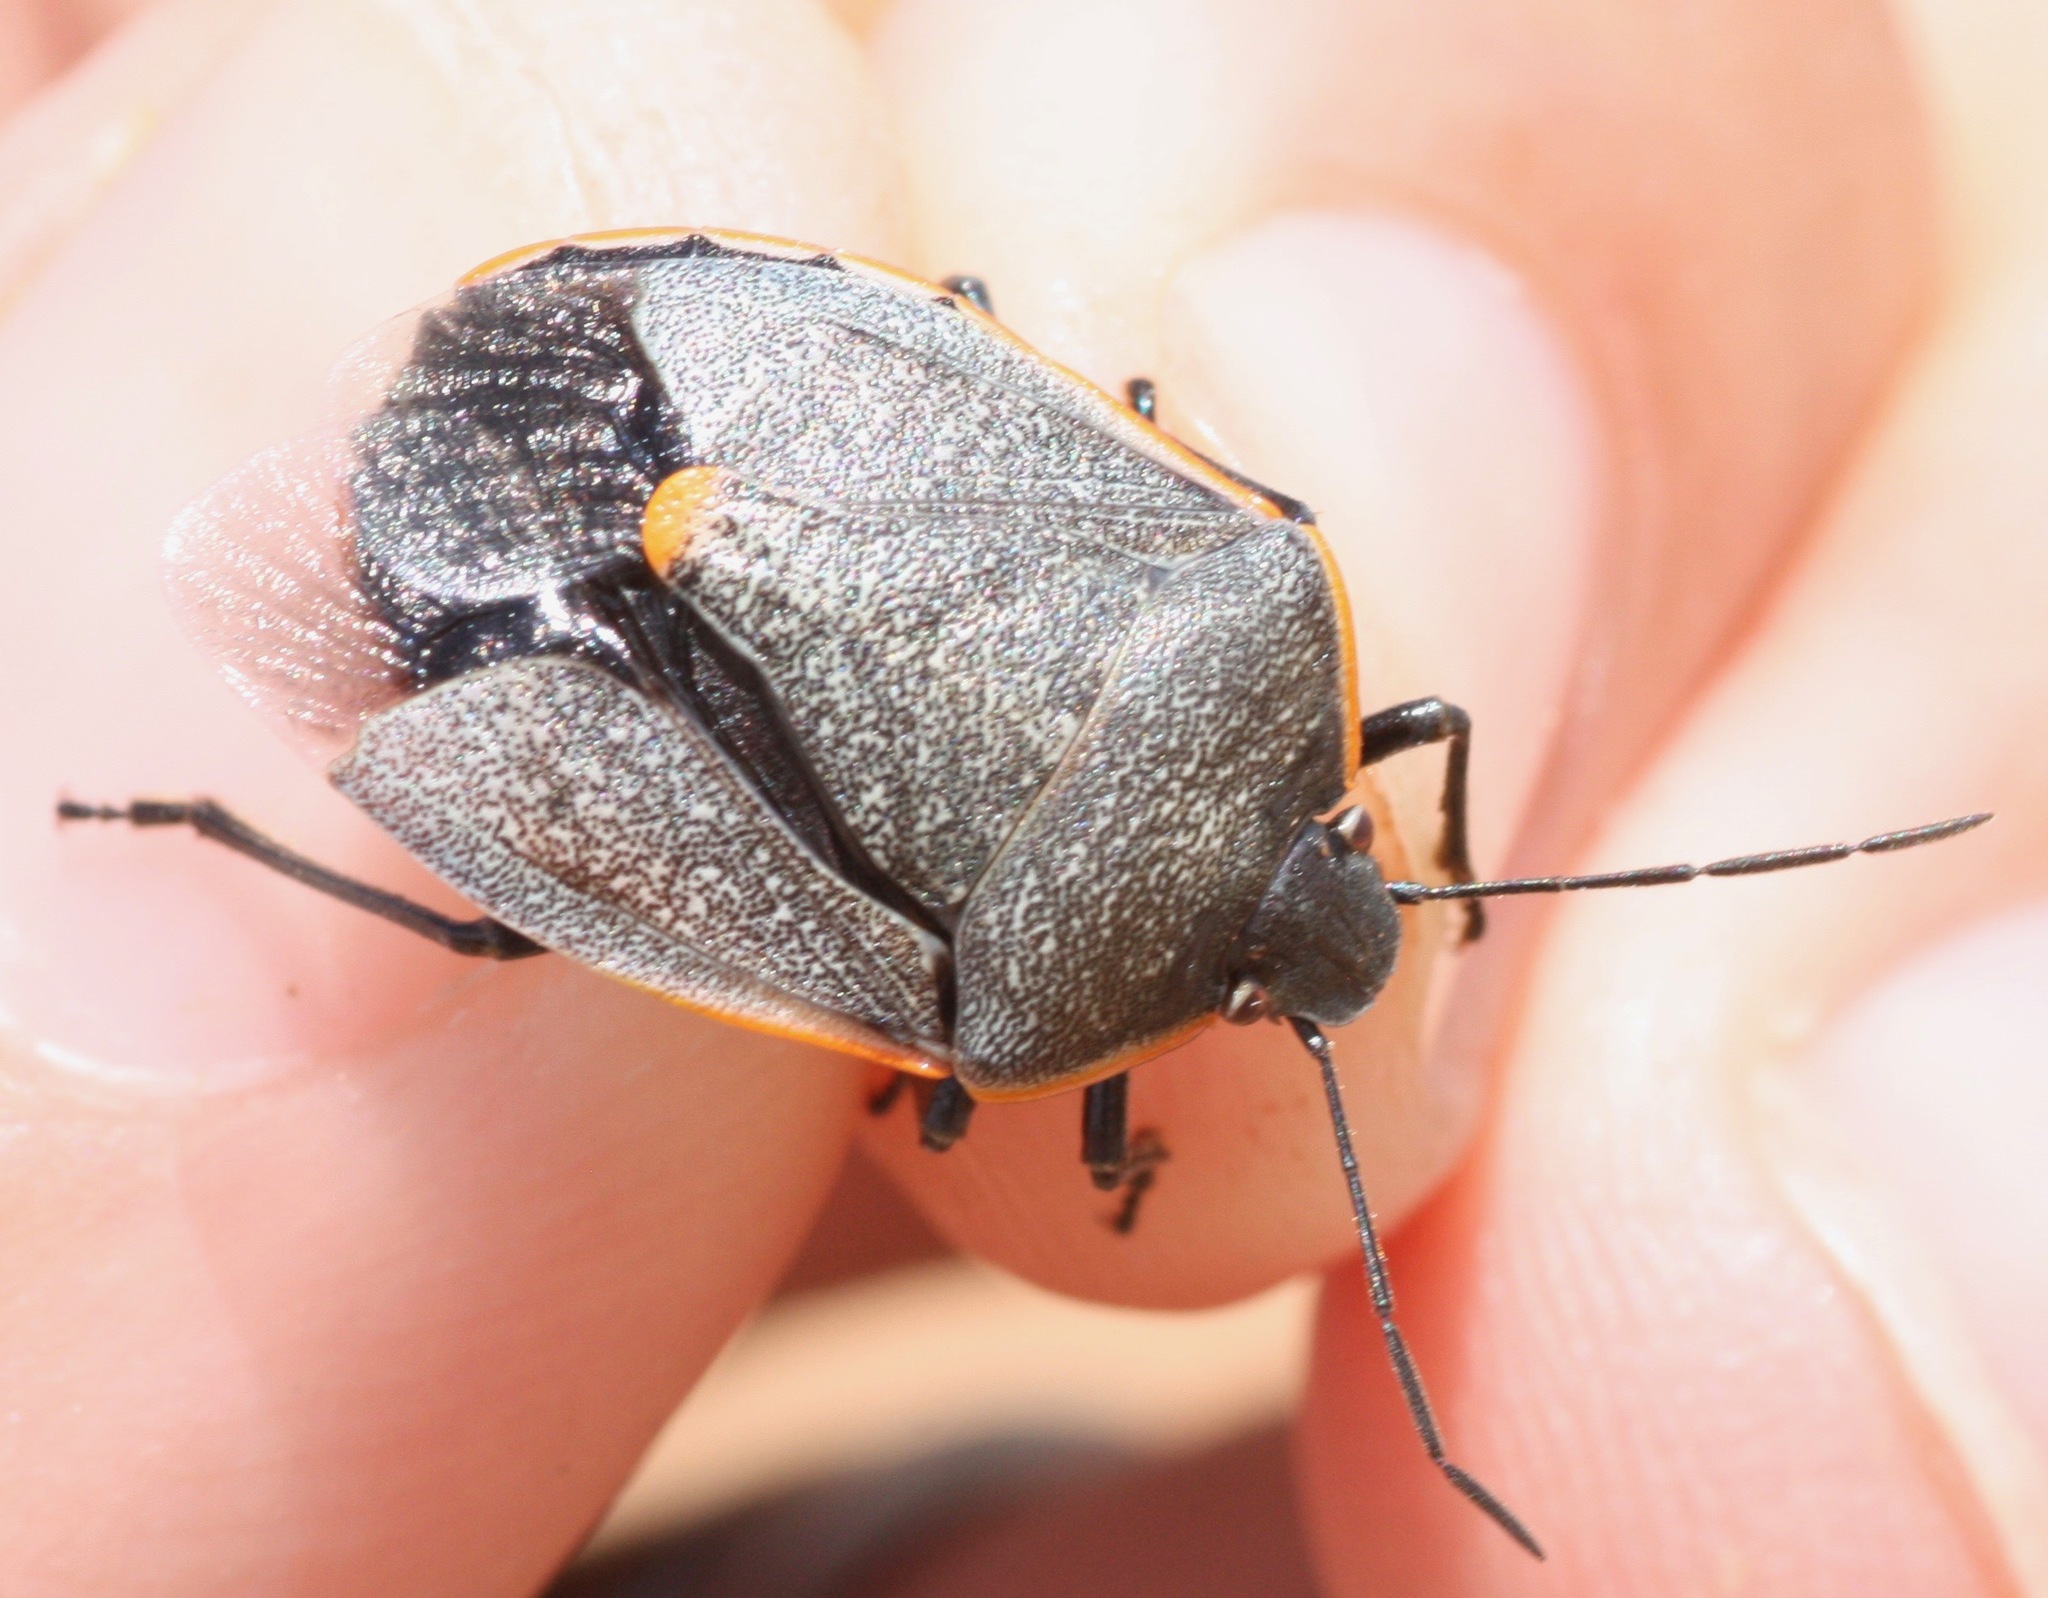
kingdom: Animalia
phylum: Arthropoda
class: Insecta
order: Hemiptera
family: Pentatomidae
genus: Chlorochroa
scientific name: Chlorochroa ligata
